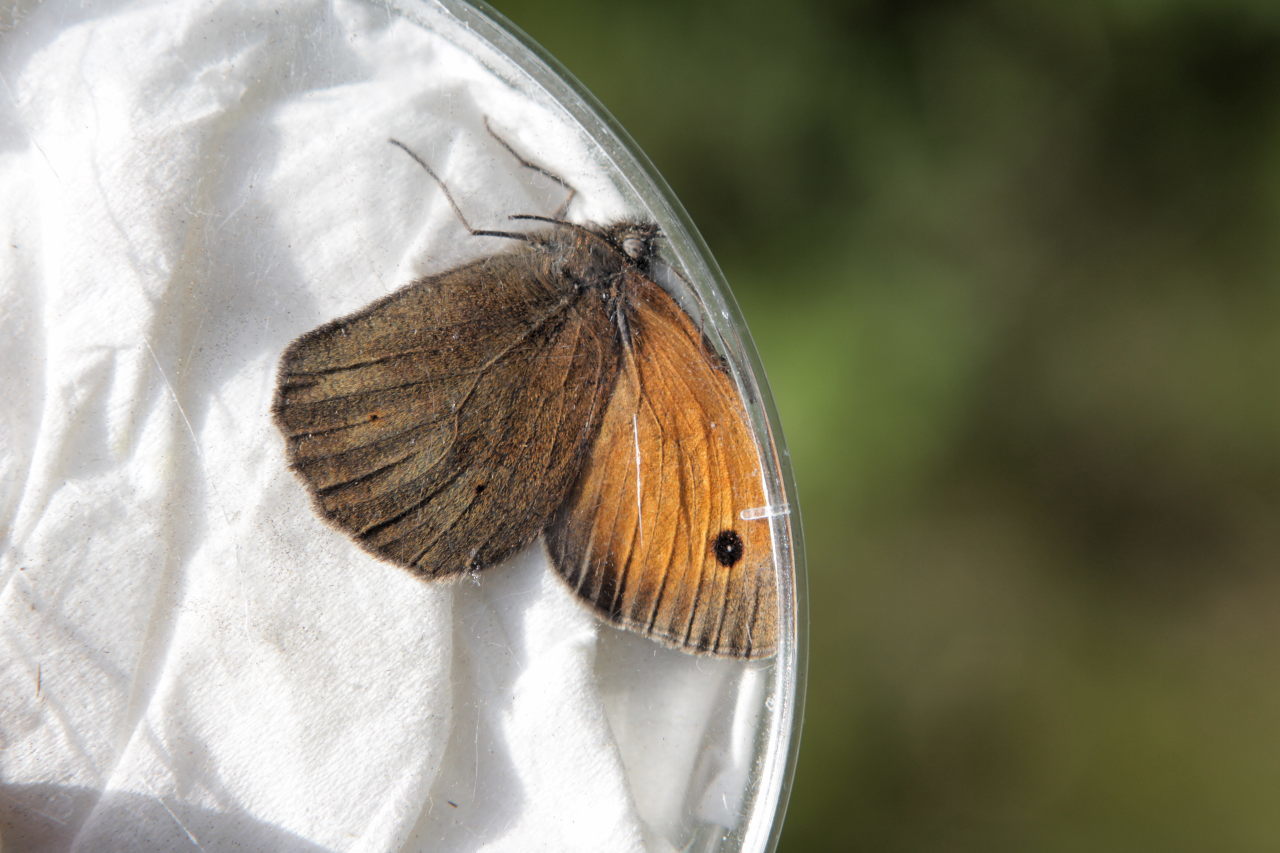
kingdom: Animalia
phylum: Arthropoda
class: Insecta
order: Lepidoptera
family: Nymphalidae
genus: Maniola
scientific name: Maniola jurtina
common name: Meadow brown
